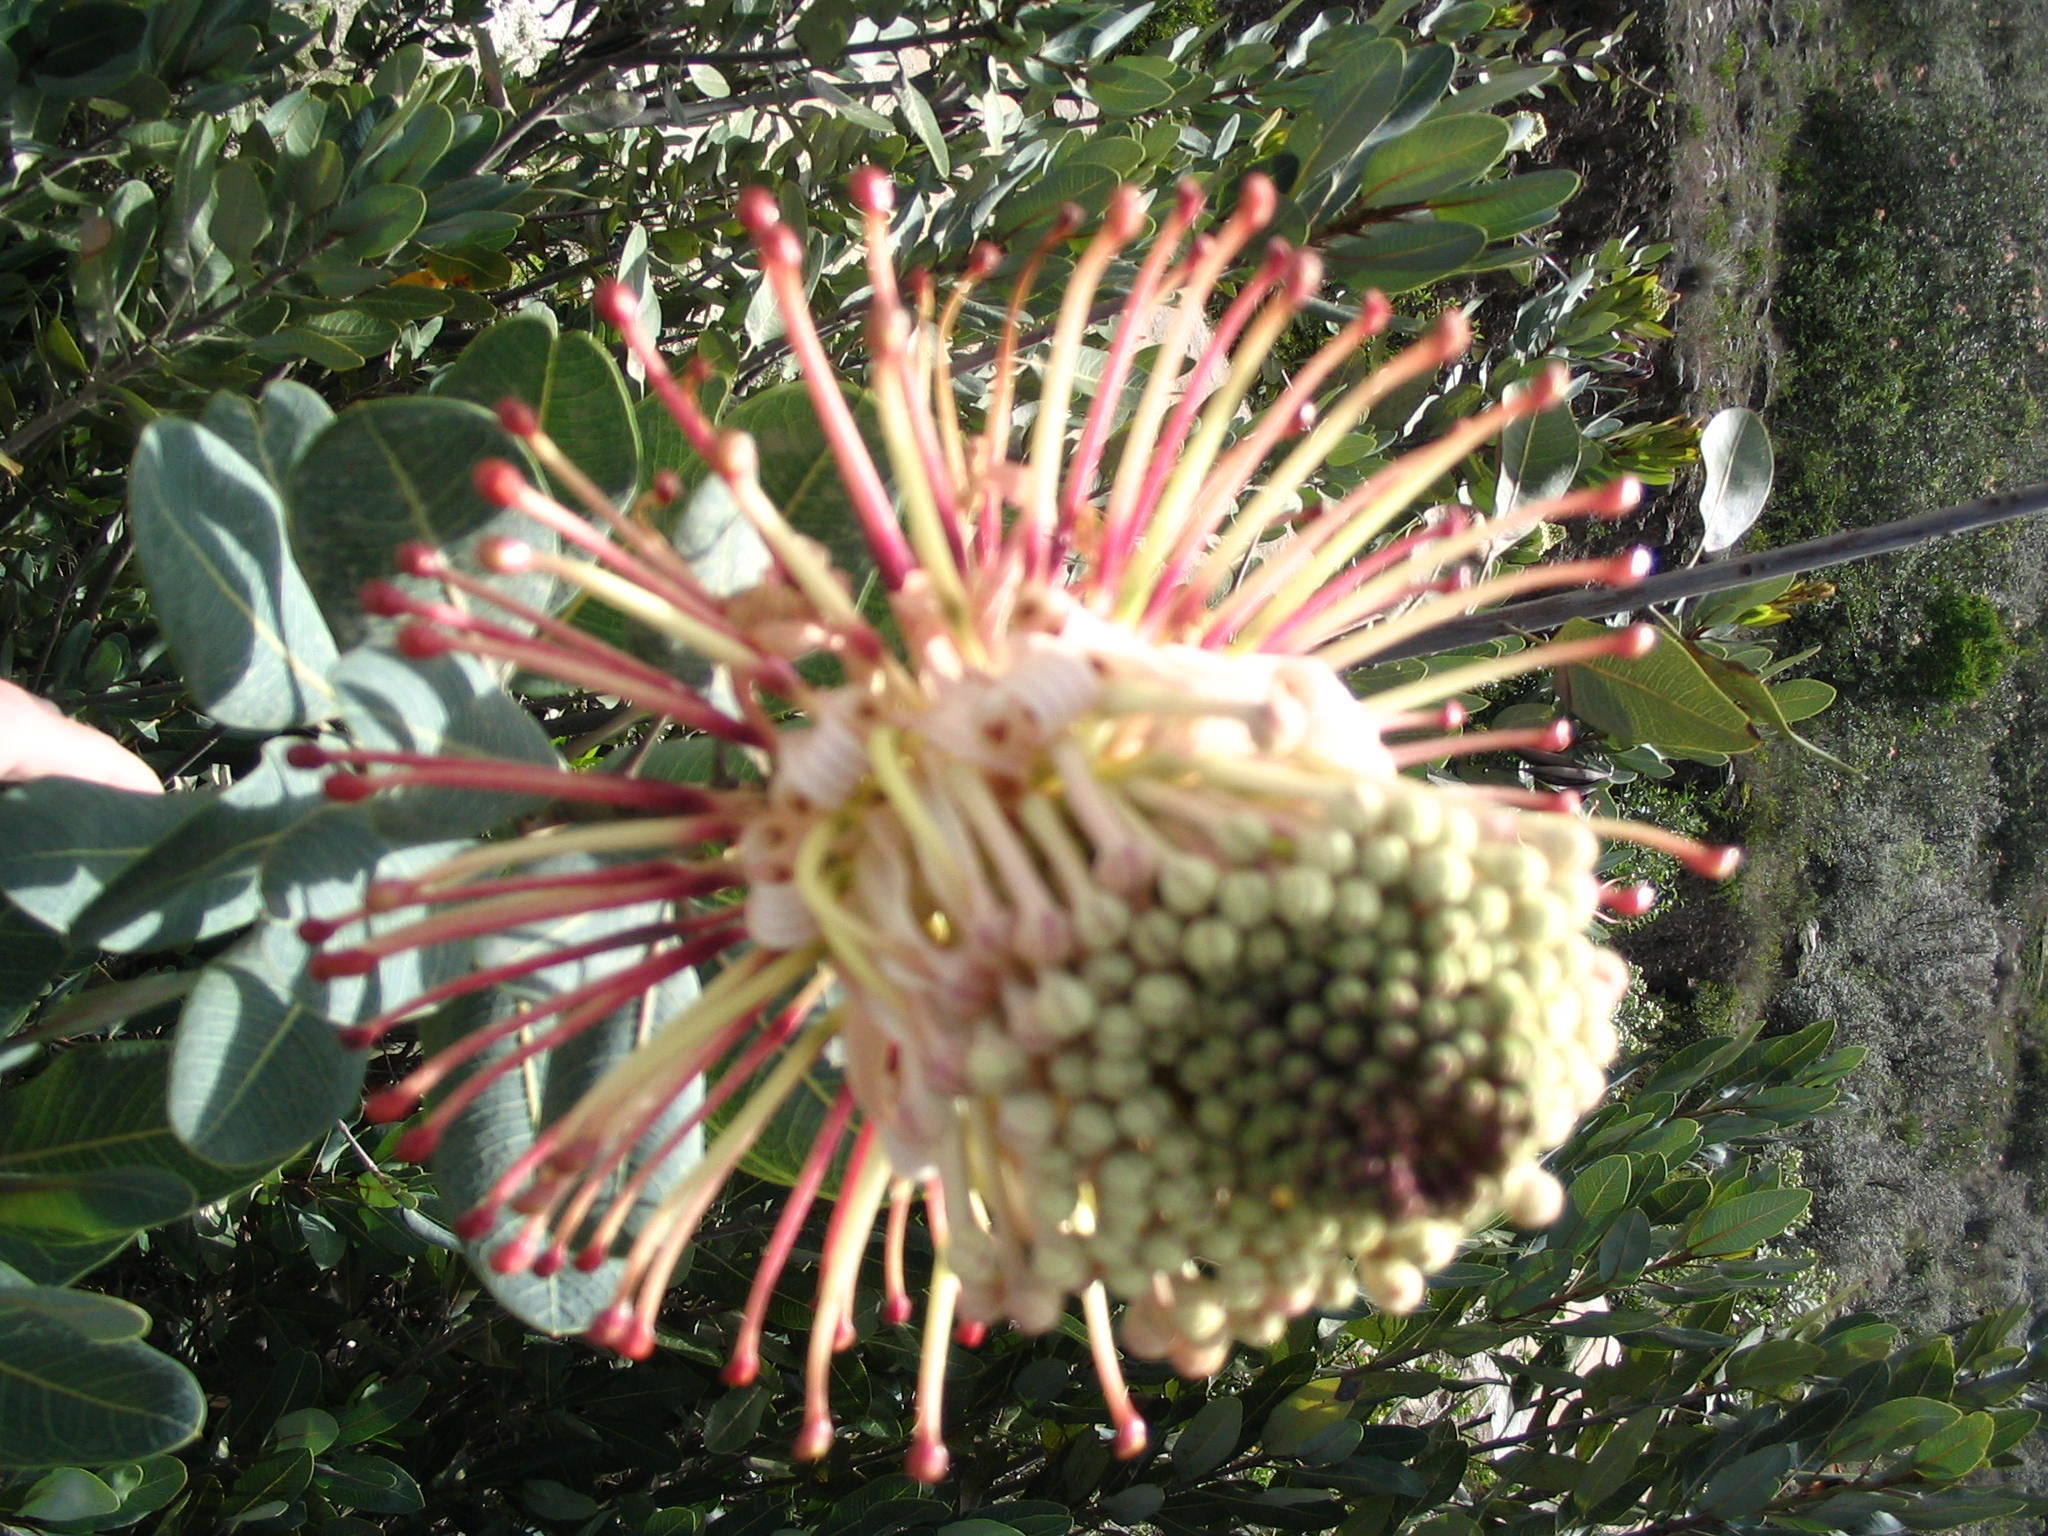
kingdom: Plantae
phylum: Tracheophyta
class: Magnoliopsida
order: Proteales
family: Proteaceae
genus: Oreocallis
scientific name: Oreocallis grandiflora
